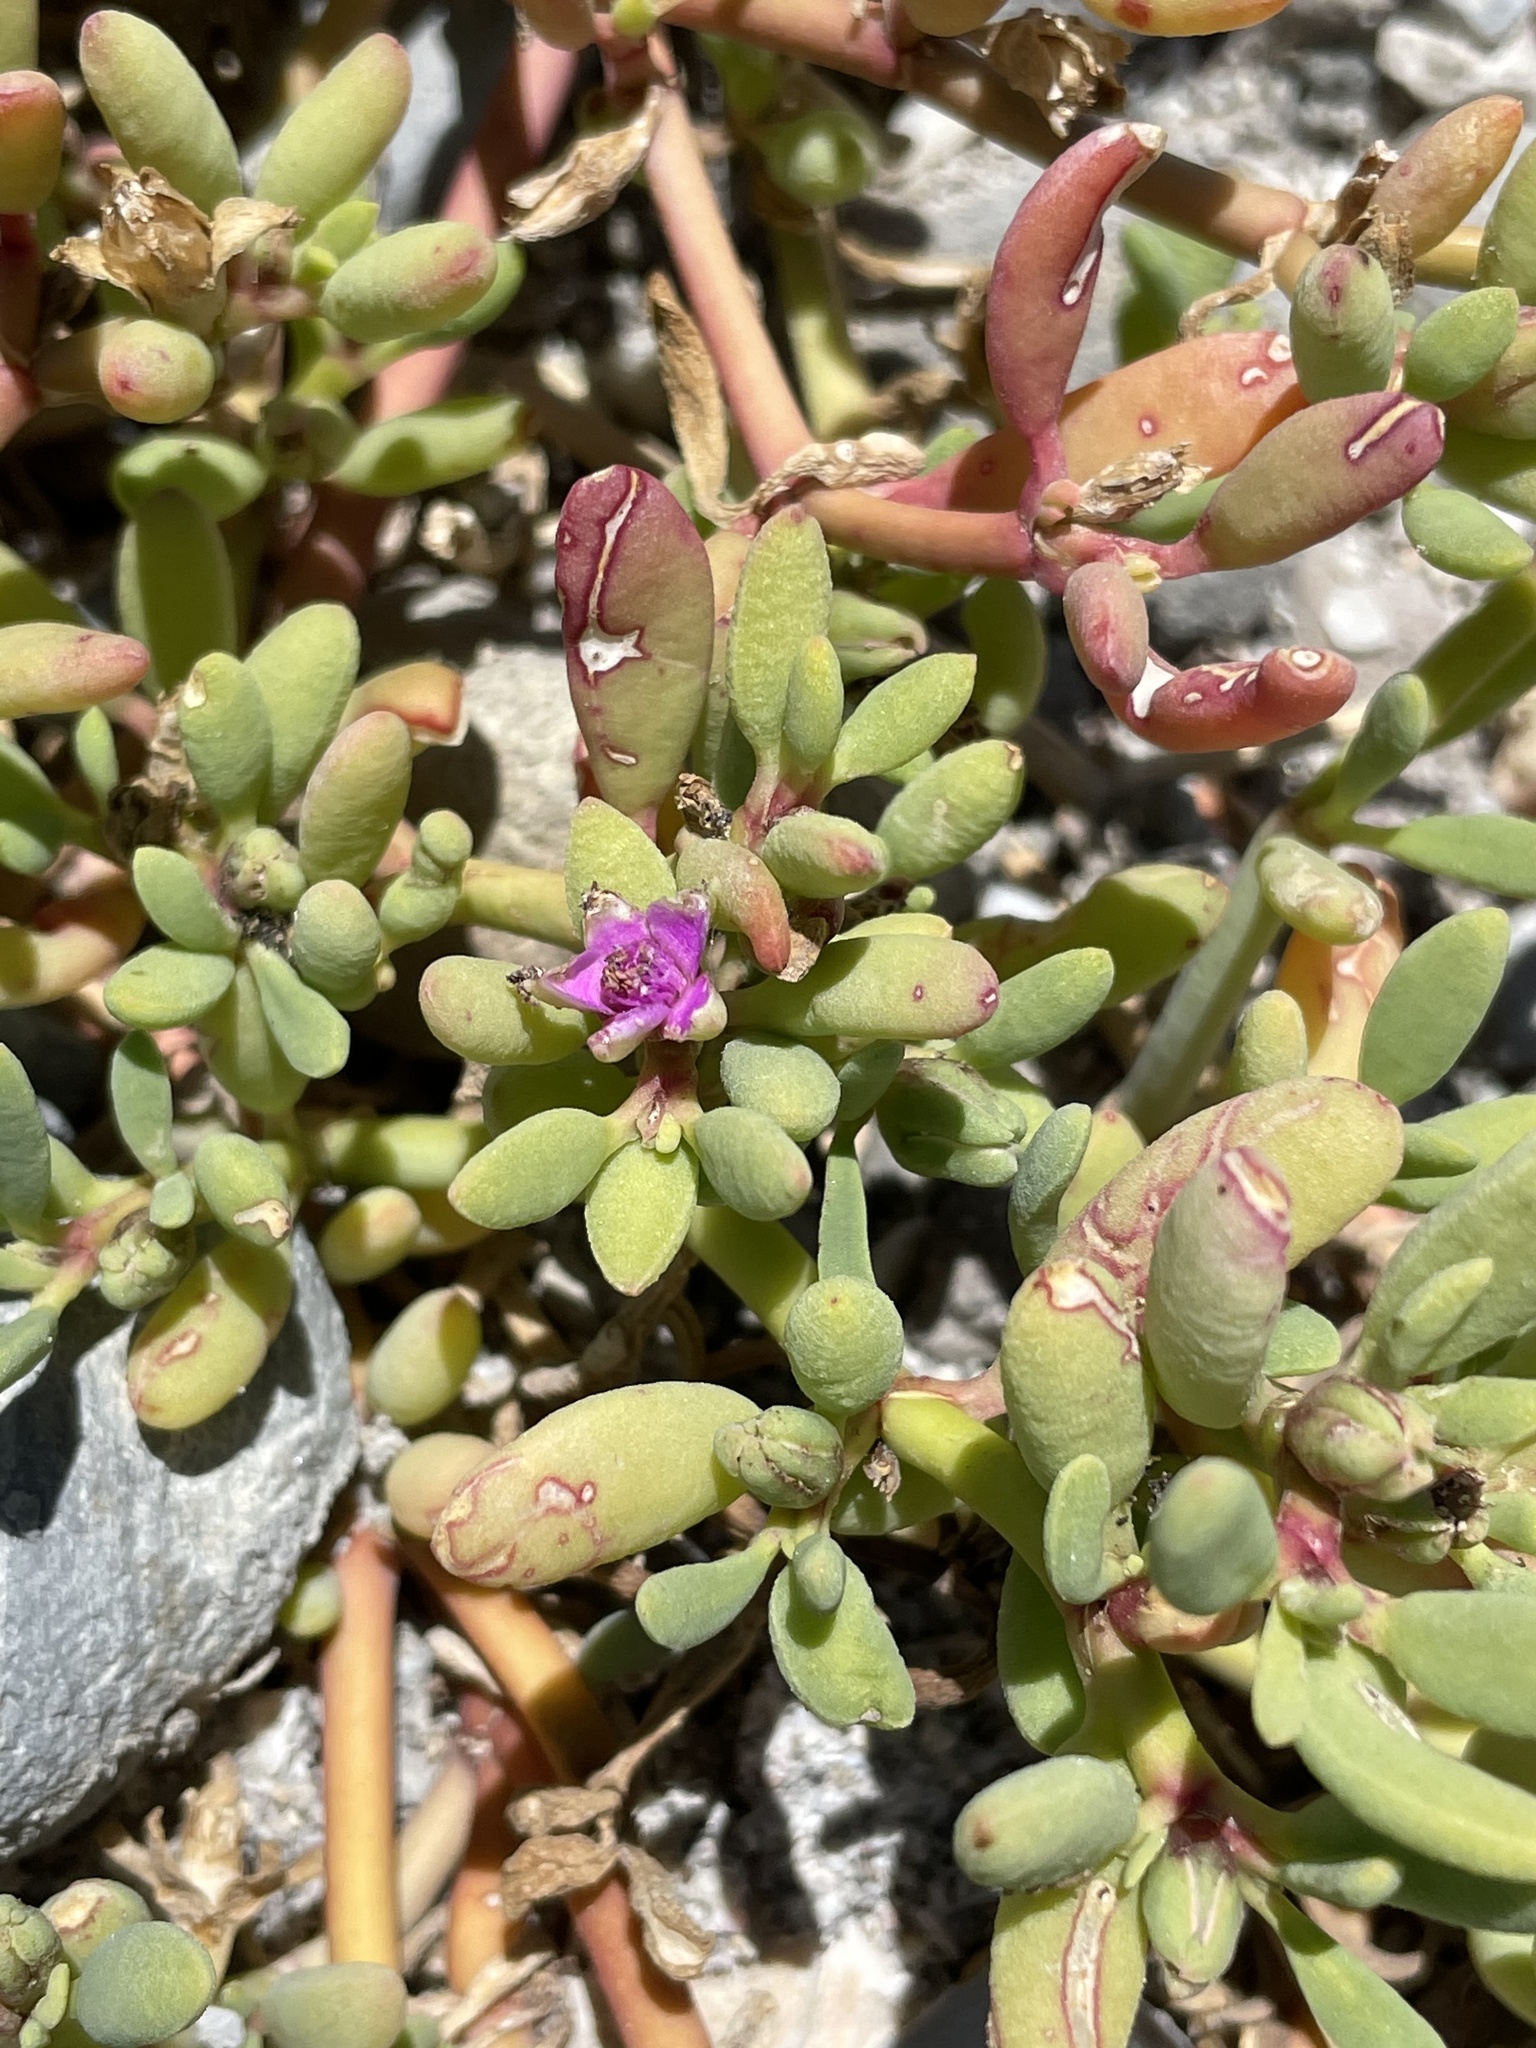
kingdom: Plantae
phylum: Tracheophyta
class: Magnoliopsida
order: Caryophyllales
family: Aizoaceae
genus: Sesuvium
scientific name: Sesuvium portulacastrum
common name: Sea-purslane
